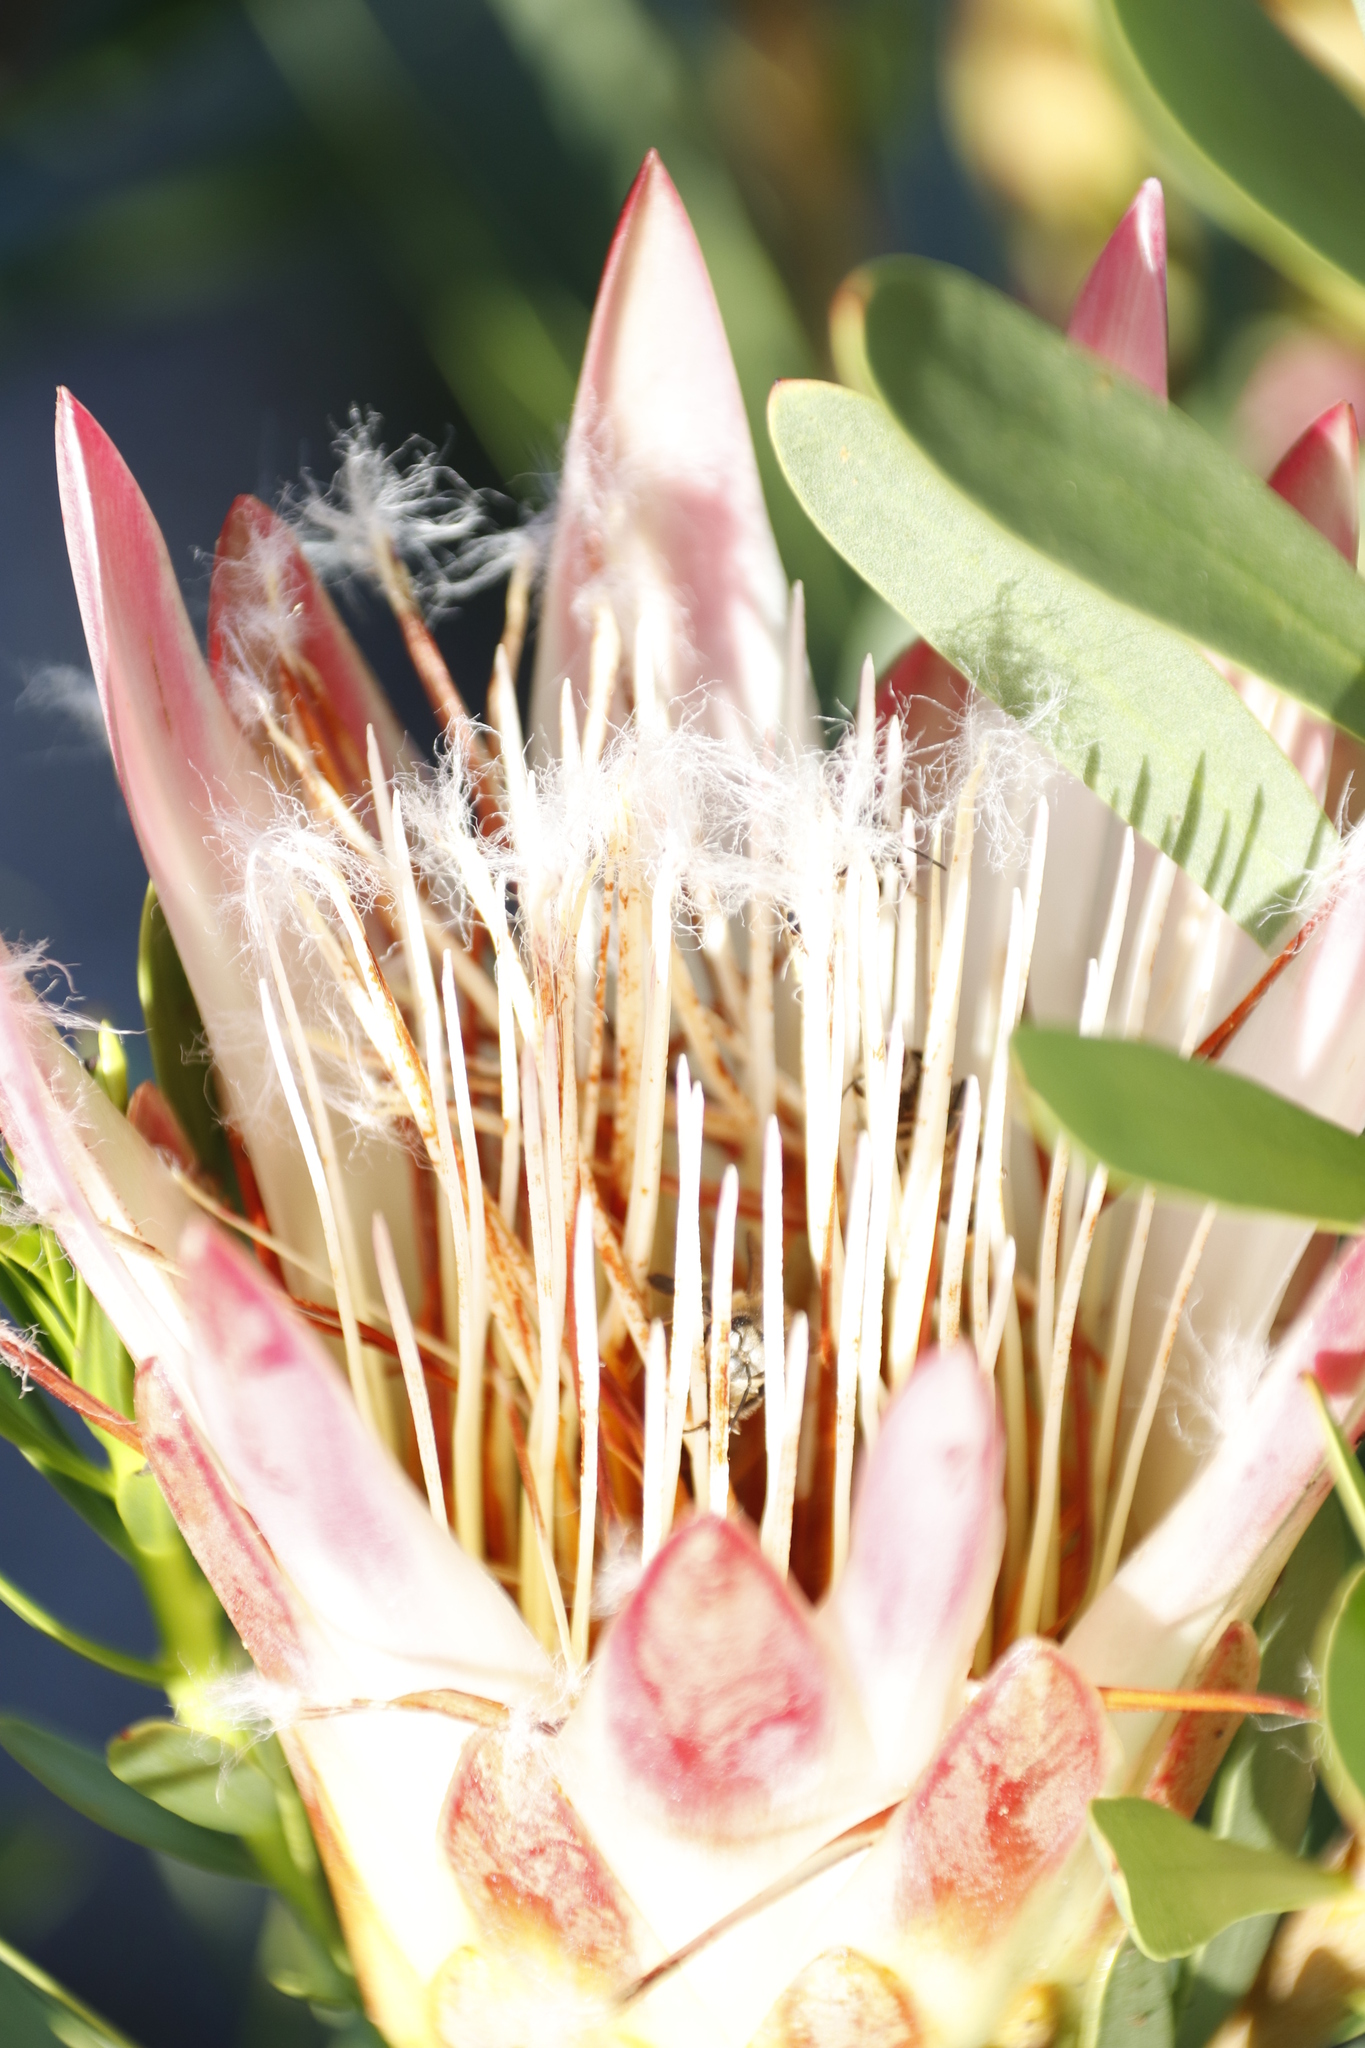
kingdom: Animalia
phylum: Arthropoda
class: Insecta
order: Hymenoptera
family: Apidae
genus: Apis
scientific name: Apis mellifera
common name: Honey bee
